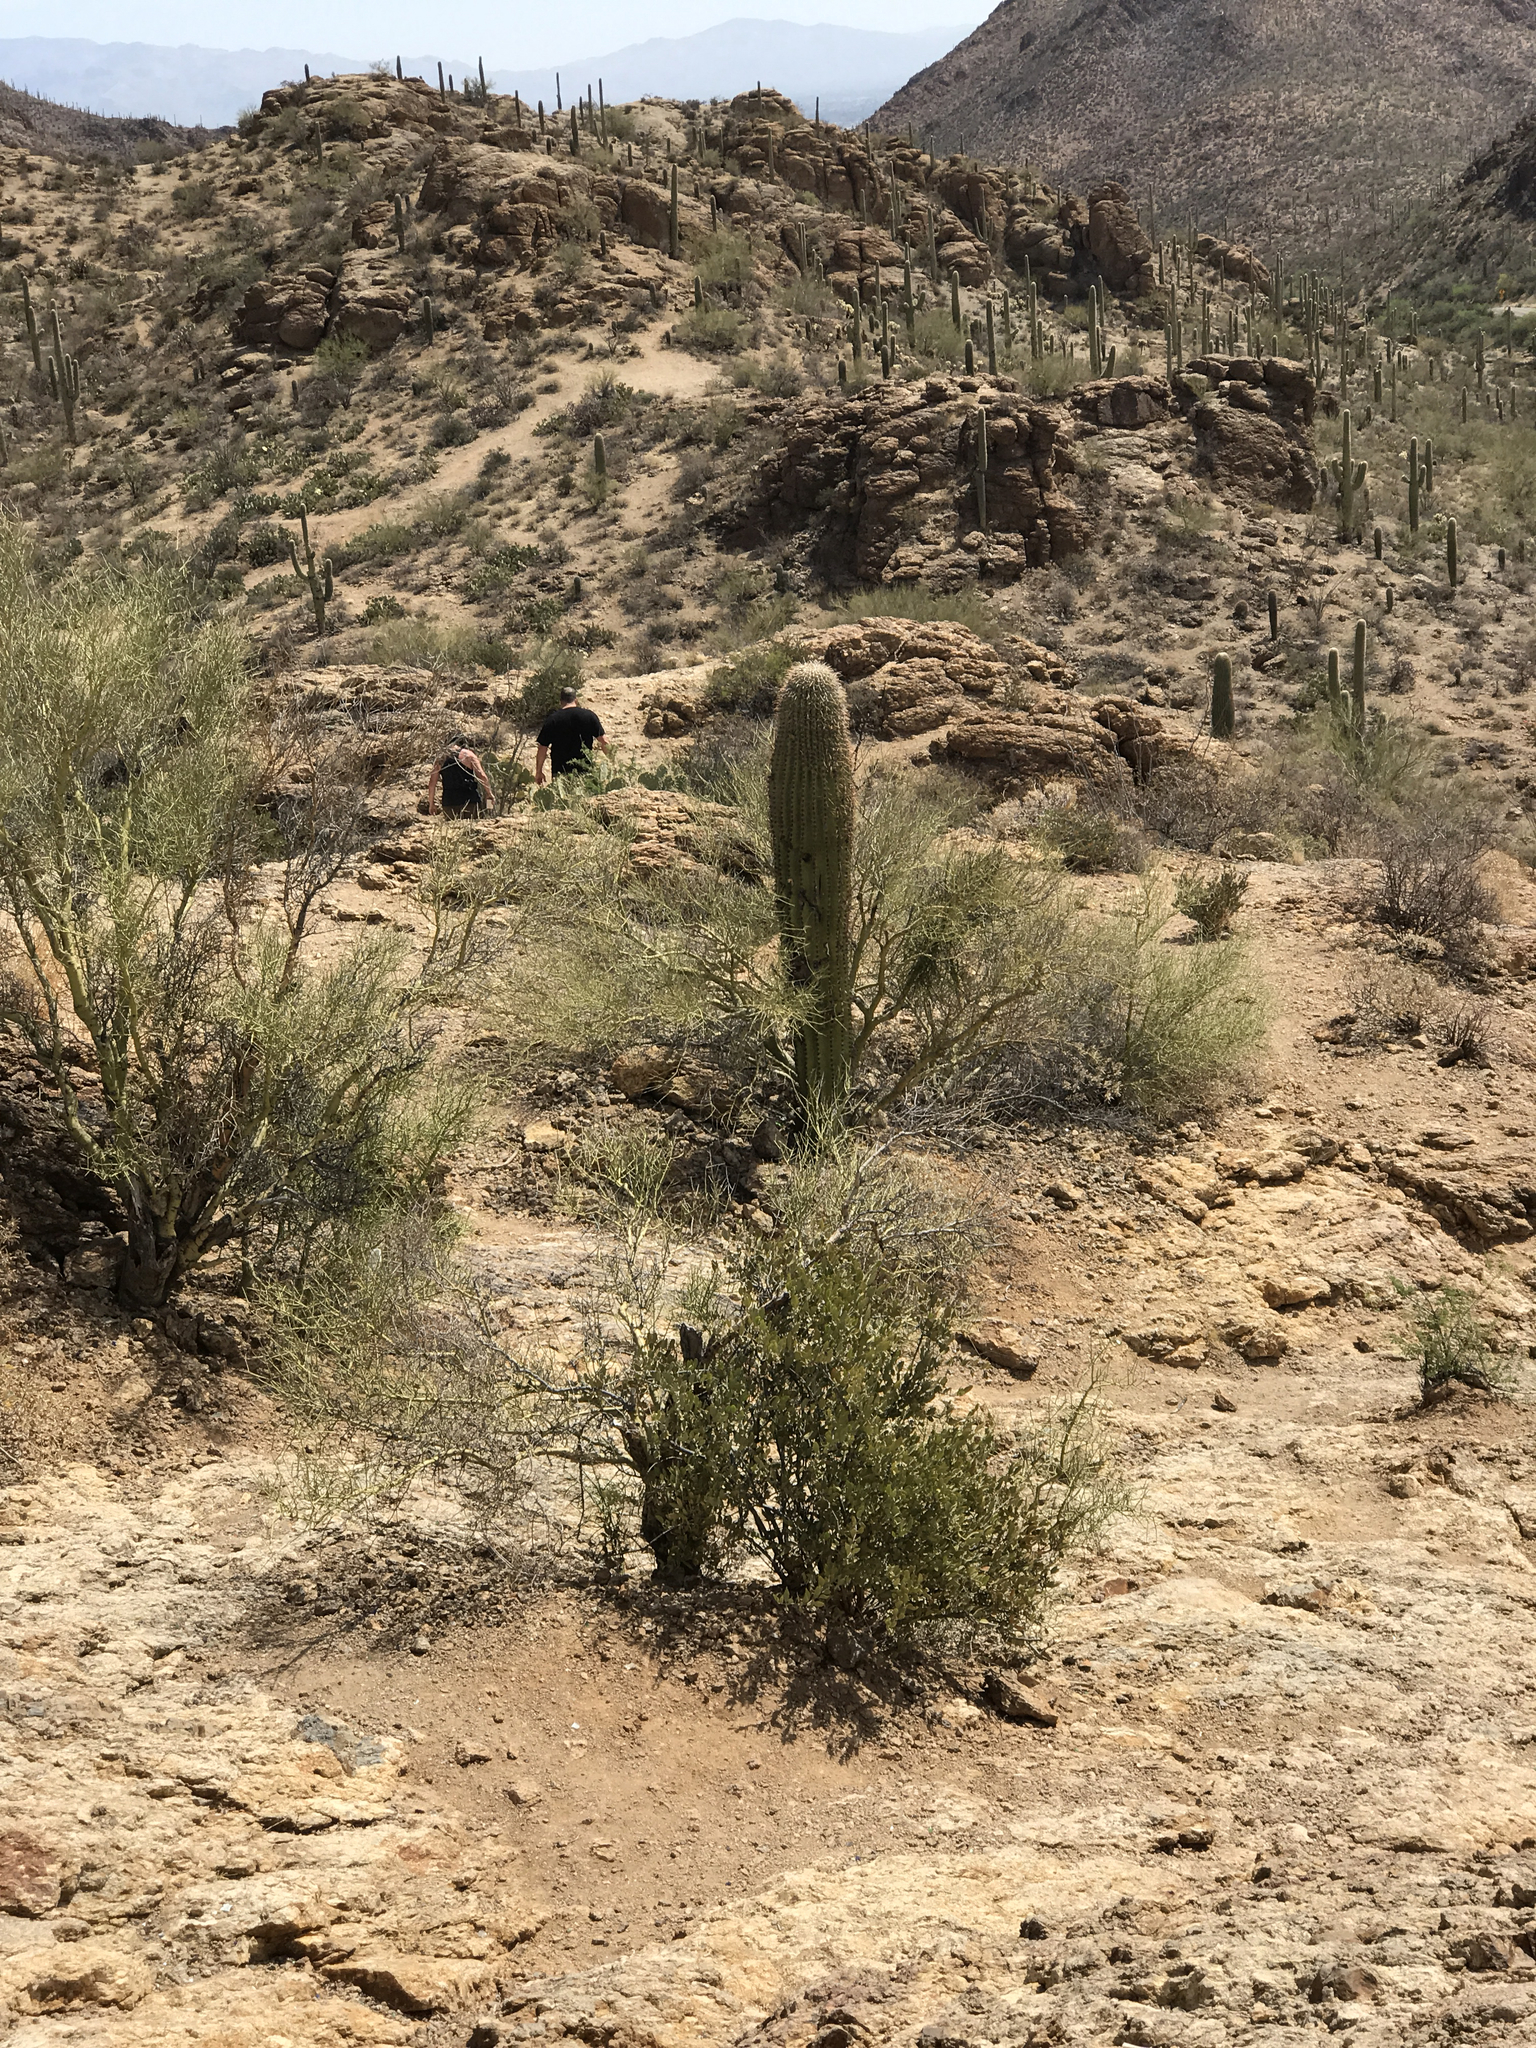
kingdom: Plantae
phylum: Tracheophyta
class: Magnoliopsida
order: Caryophyllales
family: Cactaceae
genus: Carnegiea
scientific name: Carnegiea gigantea
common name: Saguaro
